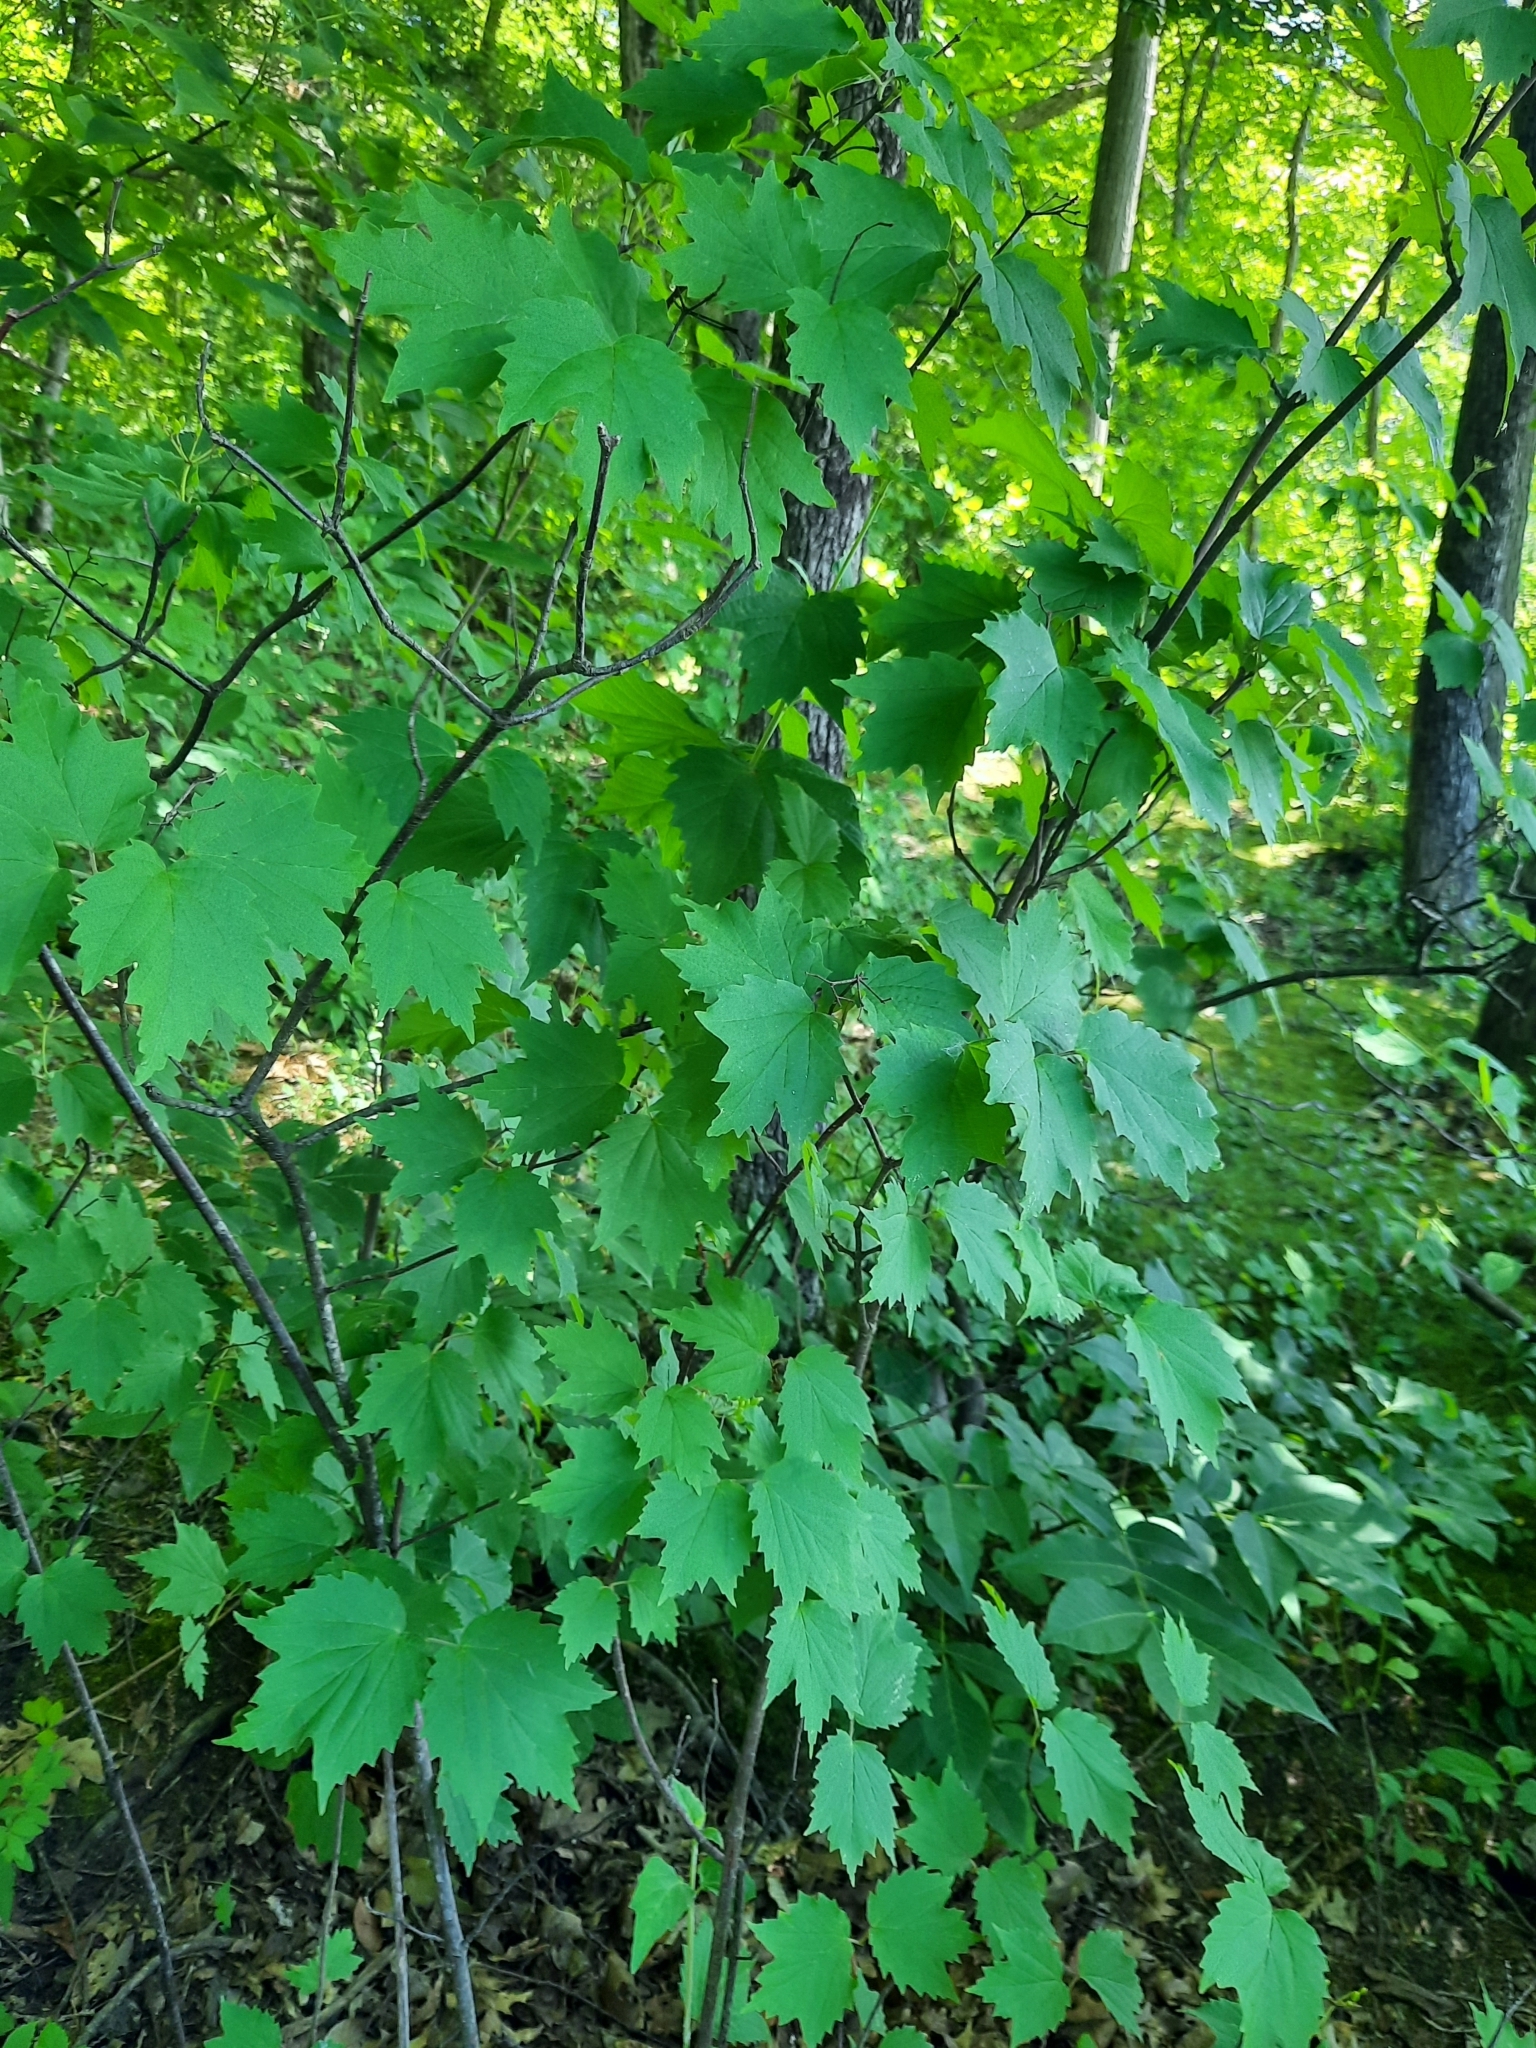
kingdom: Plantae
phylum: Tracheophyta
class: Magnoliopsida
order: Dipsacales
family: Viburnaceae
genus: Viburnum
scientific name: Viburnum acerifolium
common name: Dockmackie
